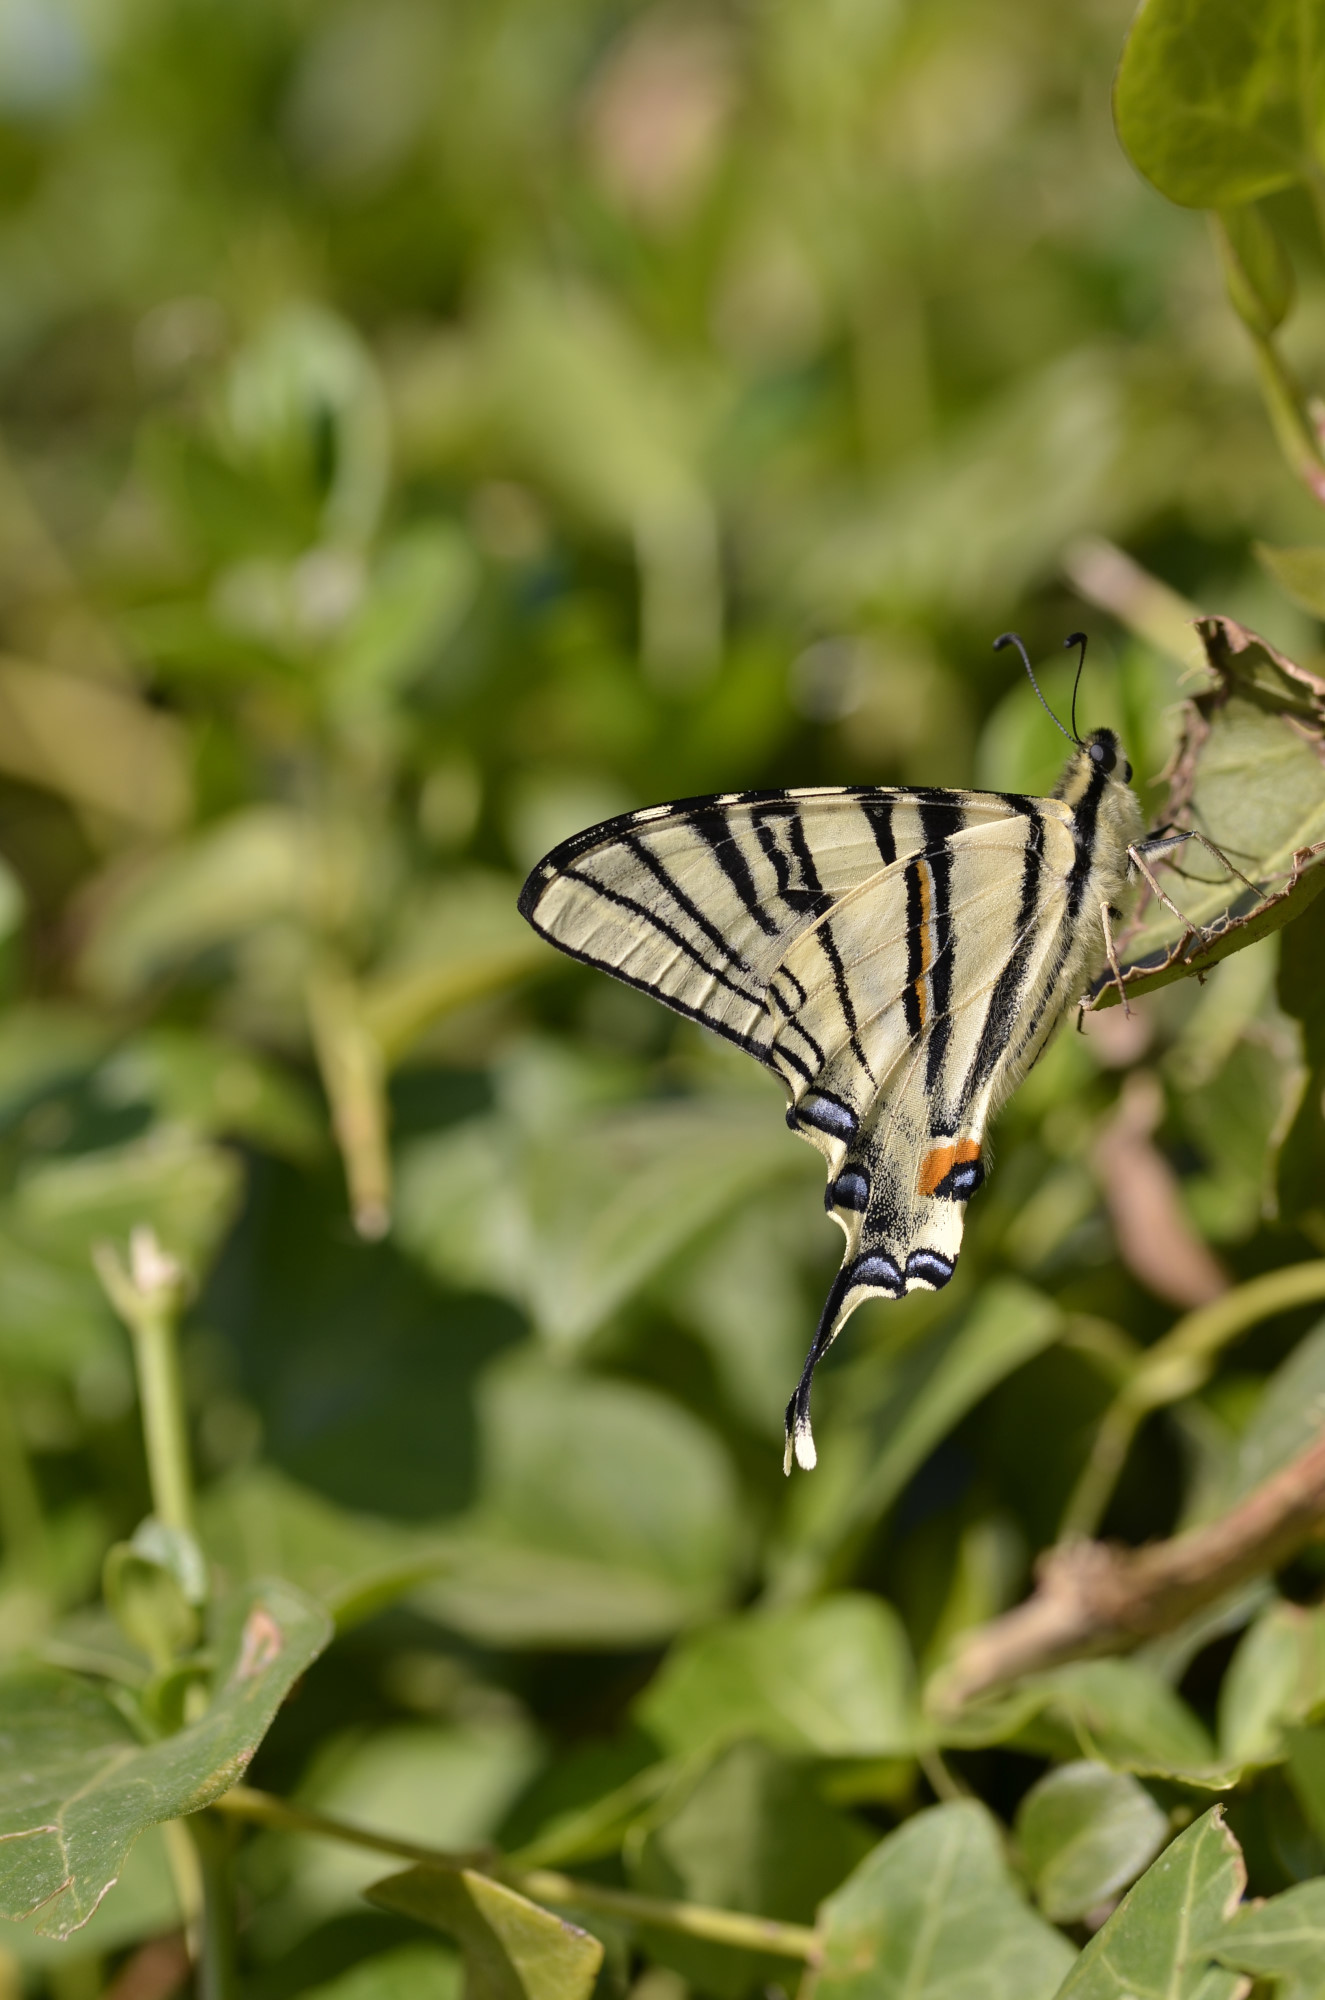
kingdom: Animalia
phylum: Arthropoda
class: Insecta
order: Lepidoptera
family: Papilionidae
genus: Iphiclides
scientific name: Iphiclides podalirius
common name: Scarce swallowtail
